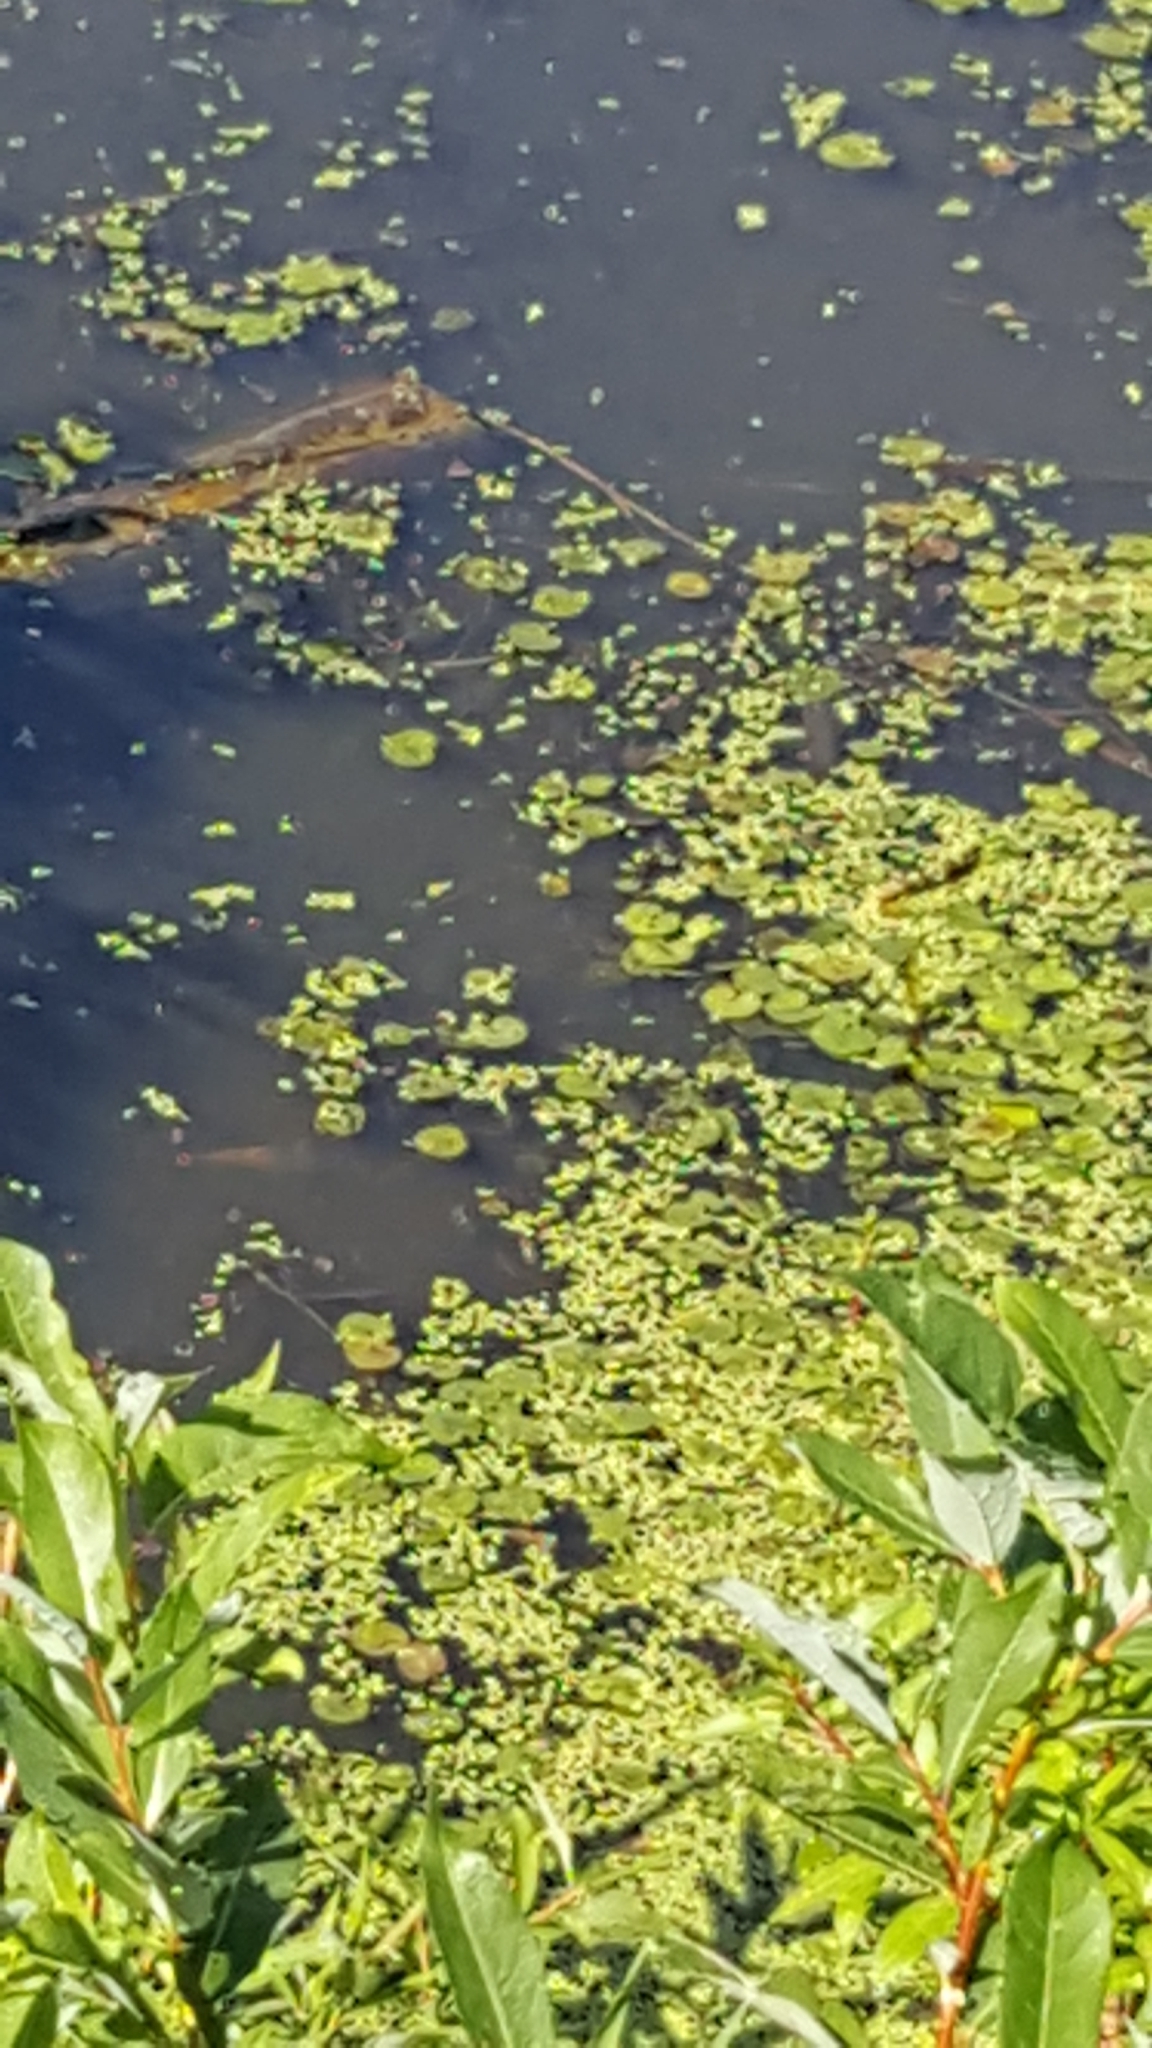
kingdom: Plantae
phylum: Tracheophyta
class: Liliopsida
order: Alismatales
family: Hydrocharitaceae
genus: Hydrocharis
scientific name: Hydrocharis morsus-ranae
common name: Frogbit
